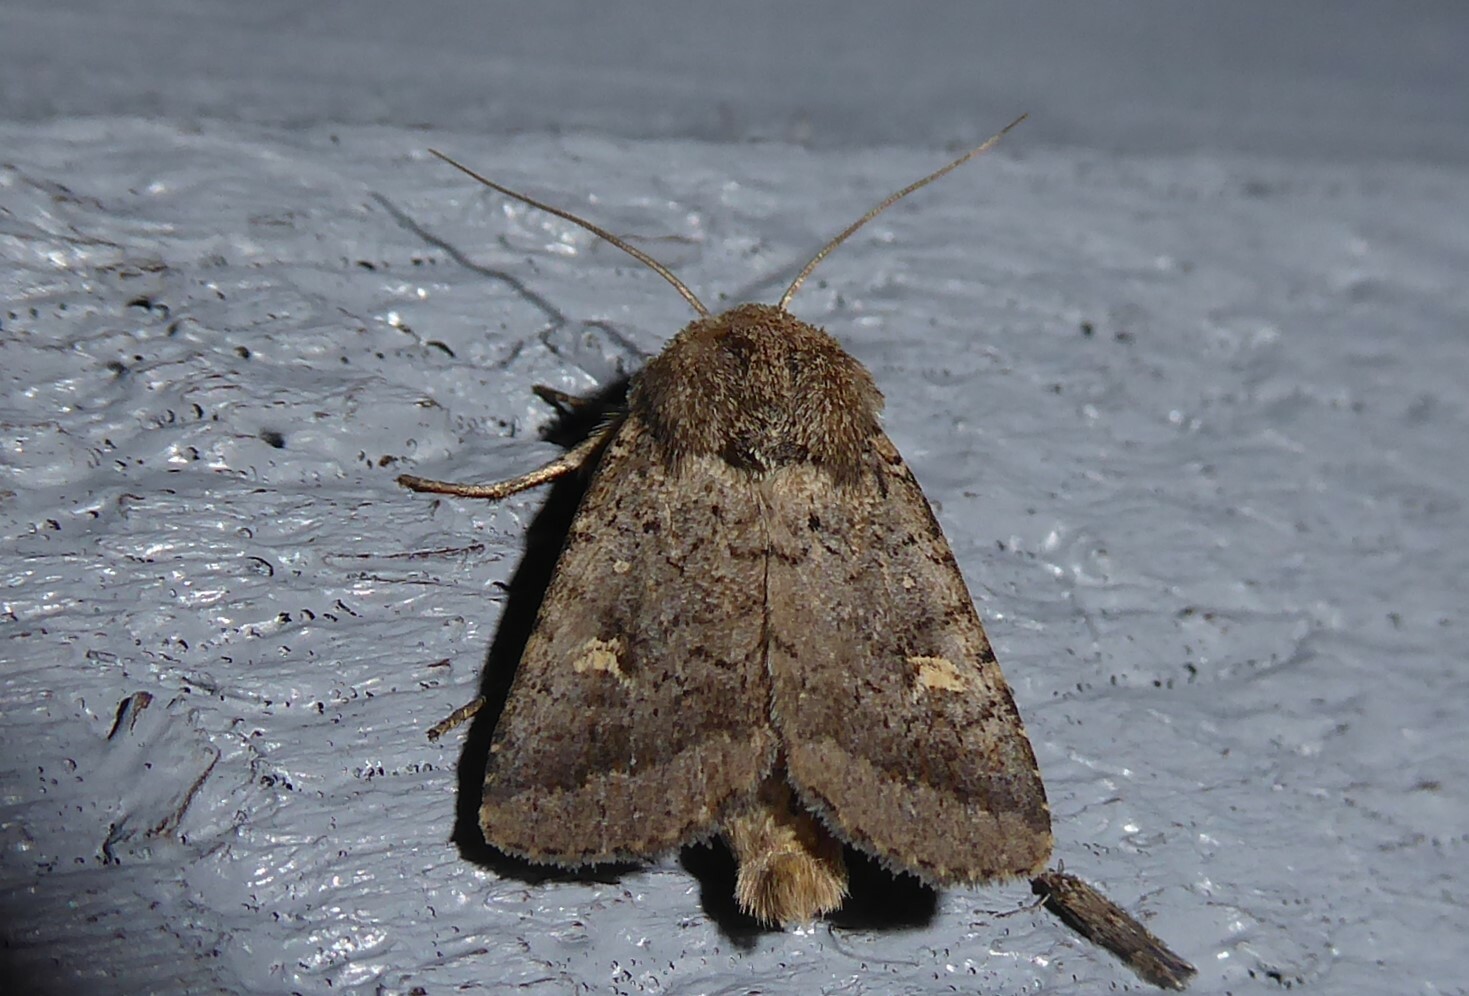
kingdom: Animalia
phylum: Arthropoda
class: Insecta
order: Lepidoptera
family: Noctuidae
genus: Proteuxoa
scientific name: Proteuxoa tetronycha
